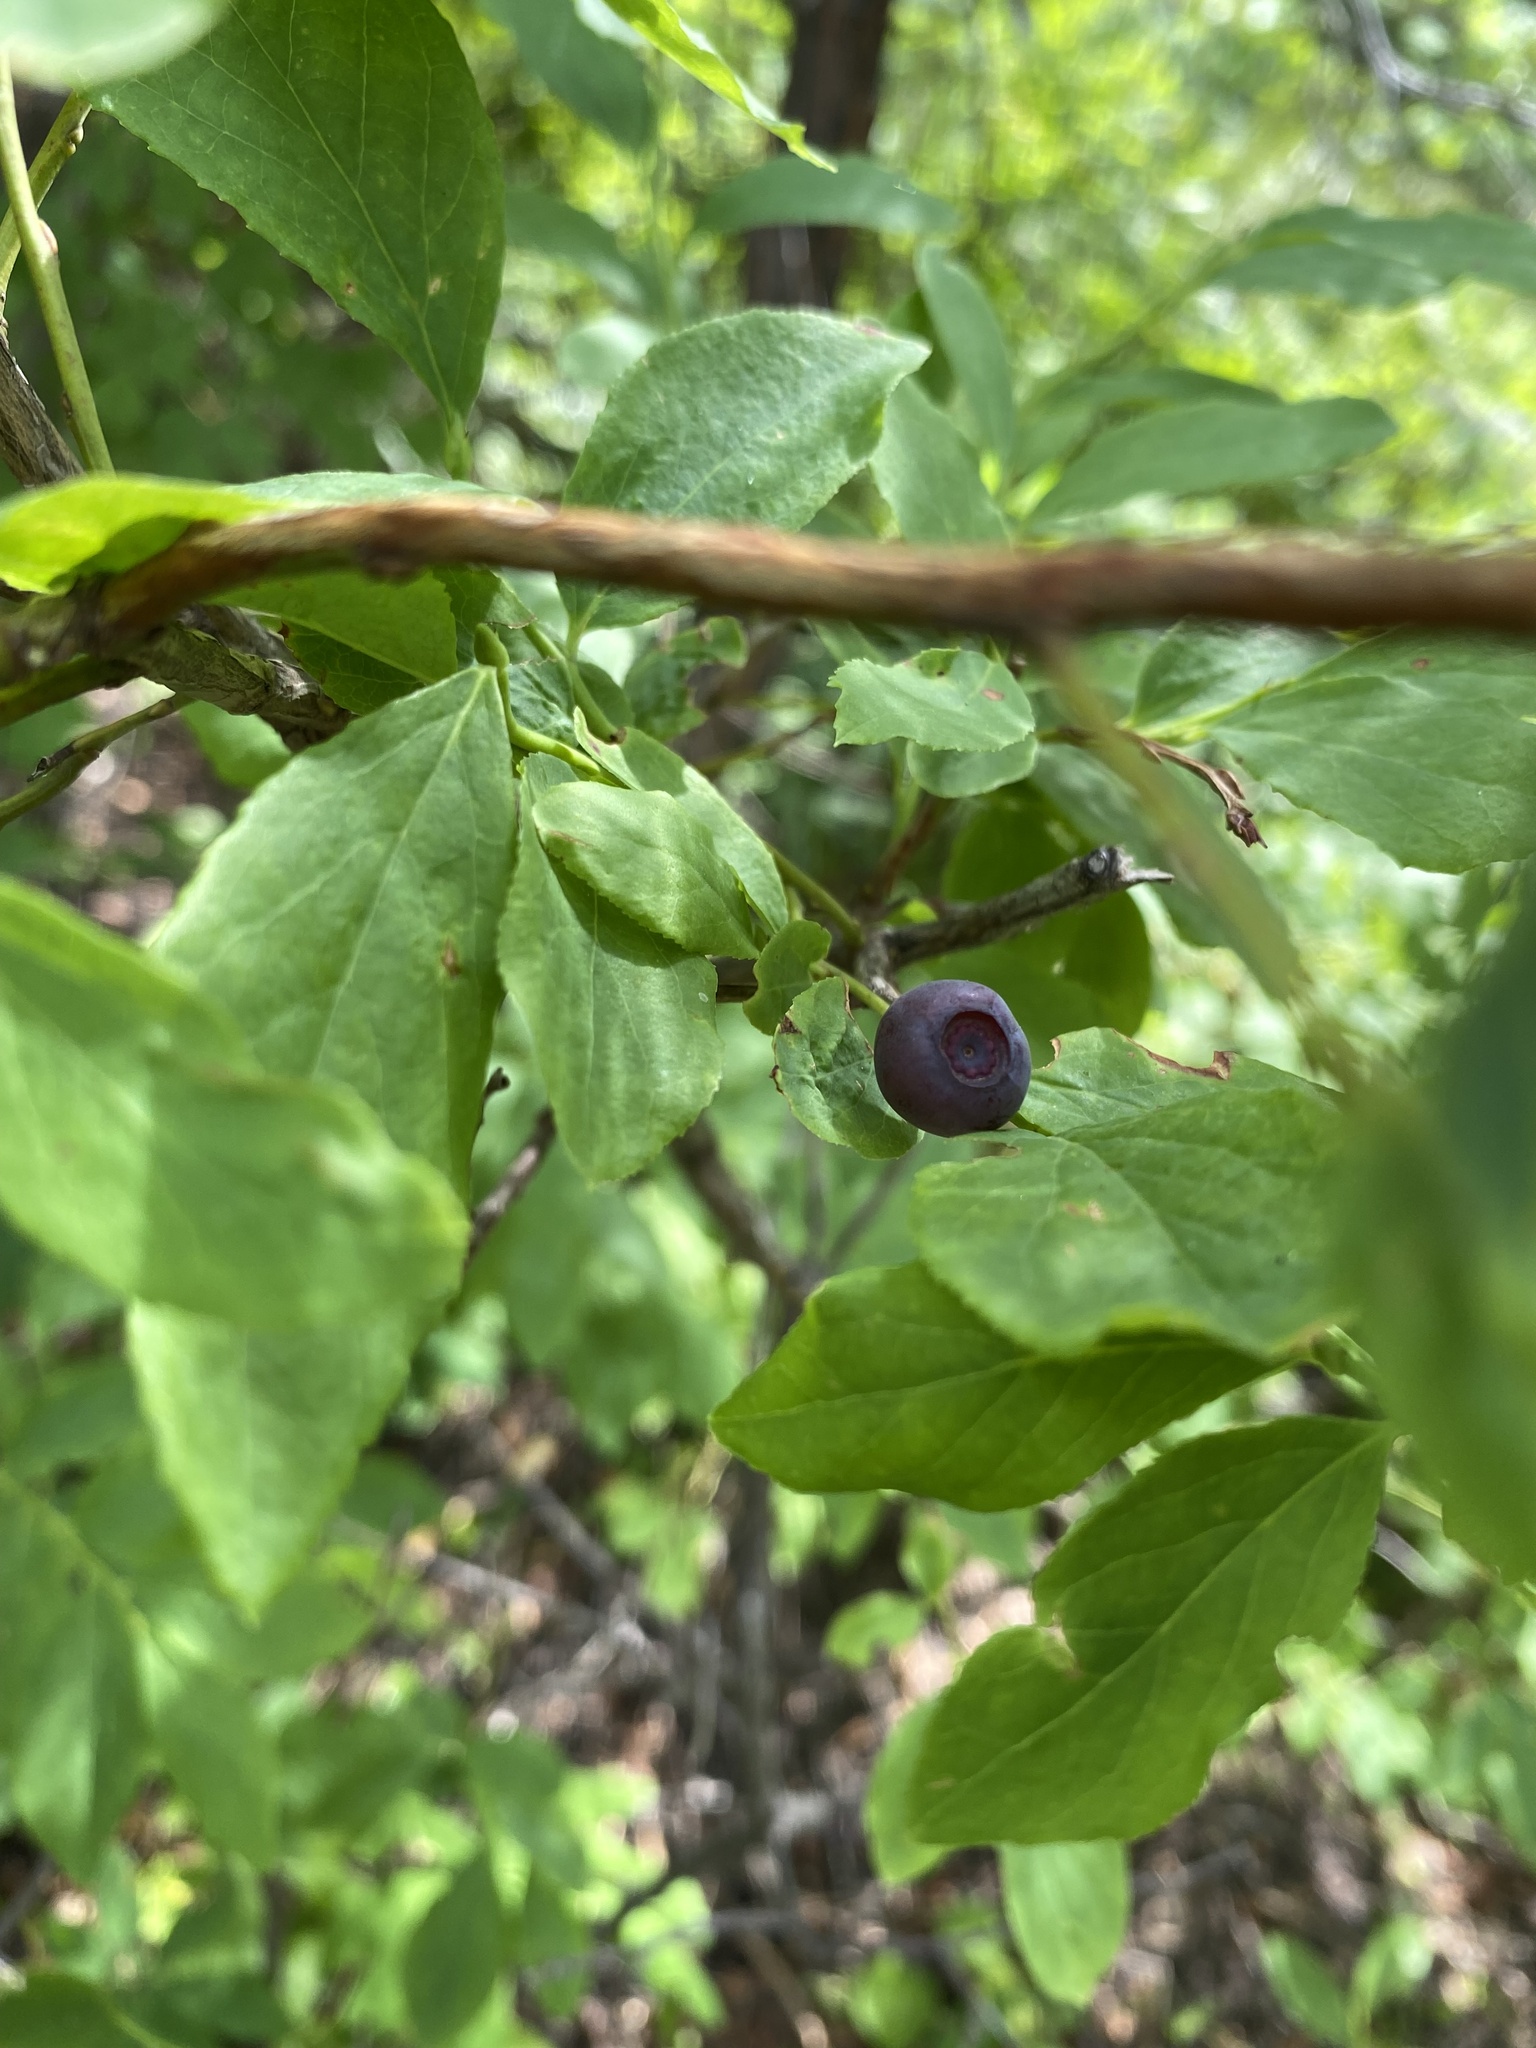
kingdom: Plantae
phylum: Tracheophyta
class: Magnoliopsida
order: Ericales
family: Ericaceae
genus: Vaccinium
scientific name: Vaccinium membranaceum
